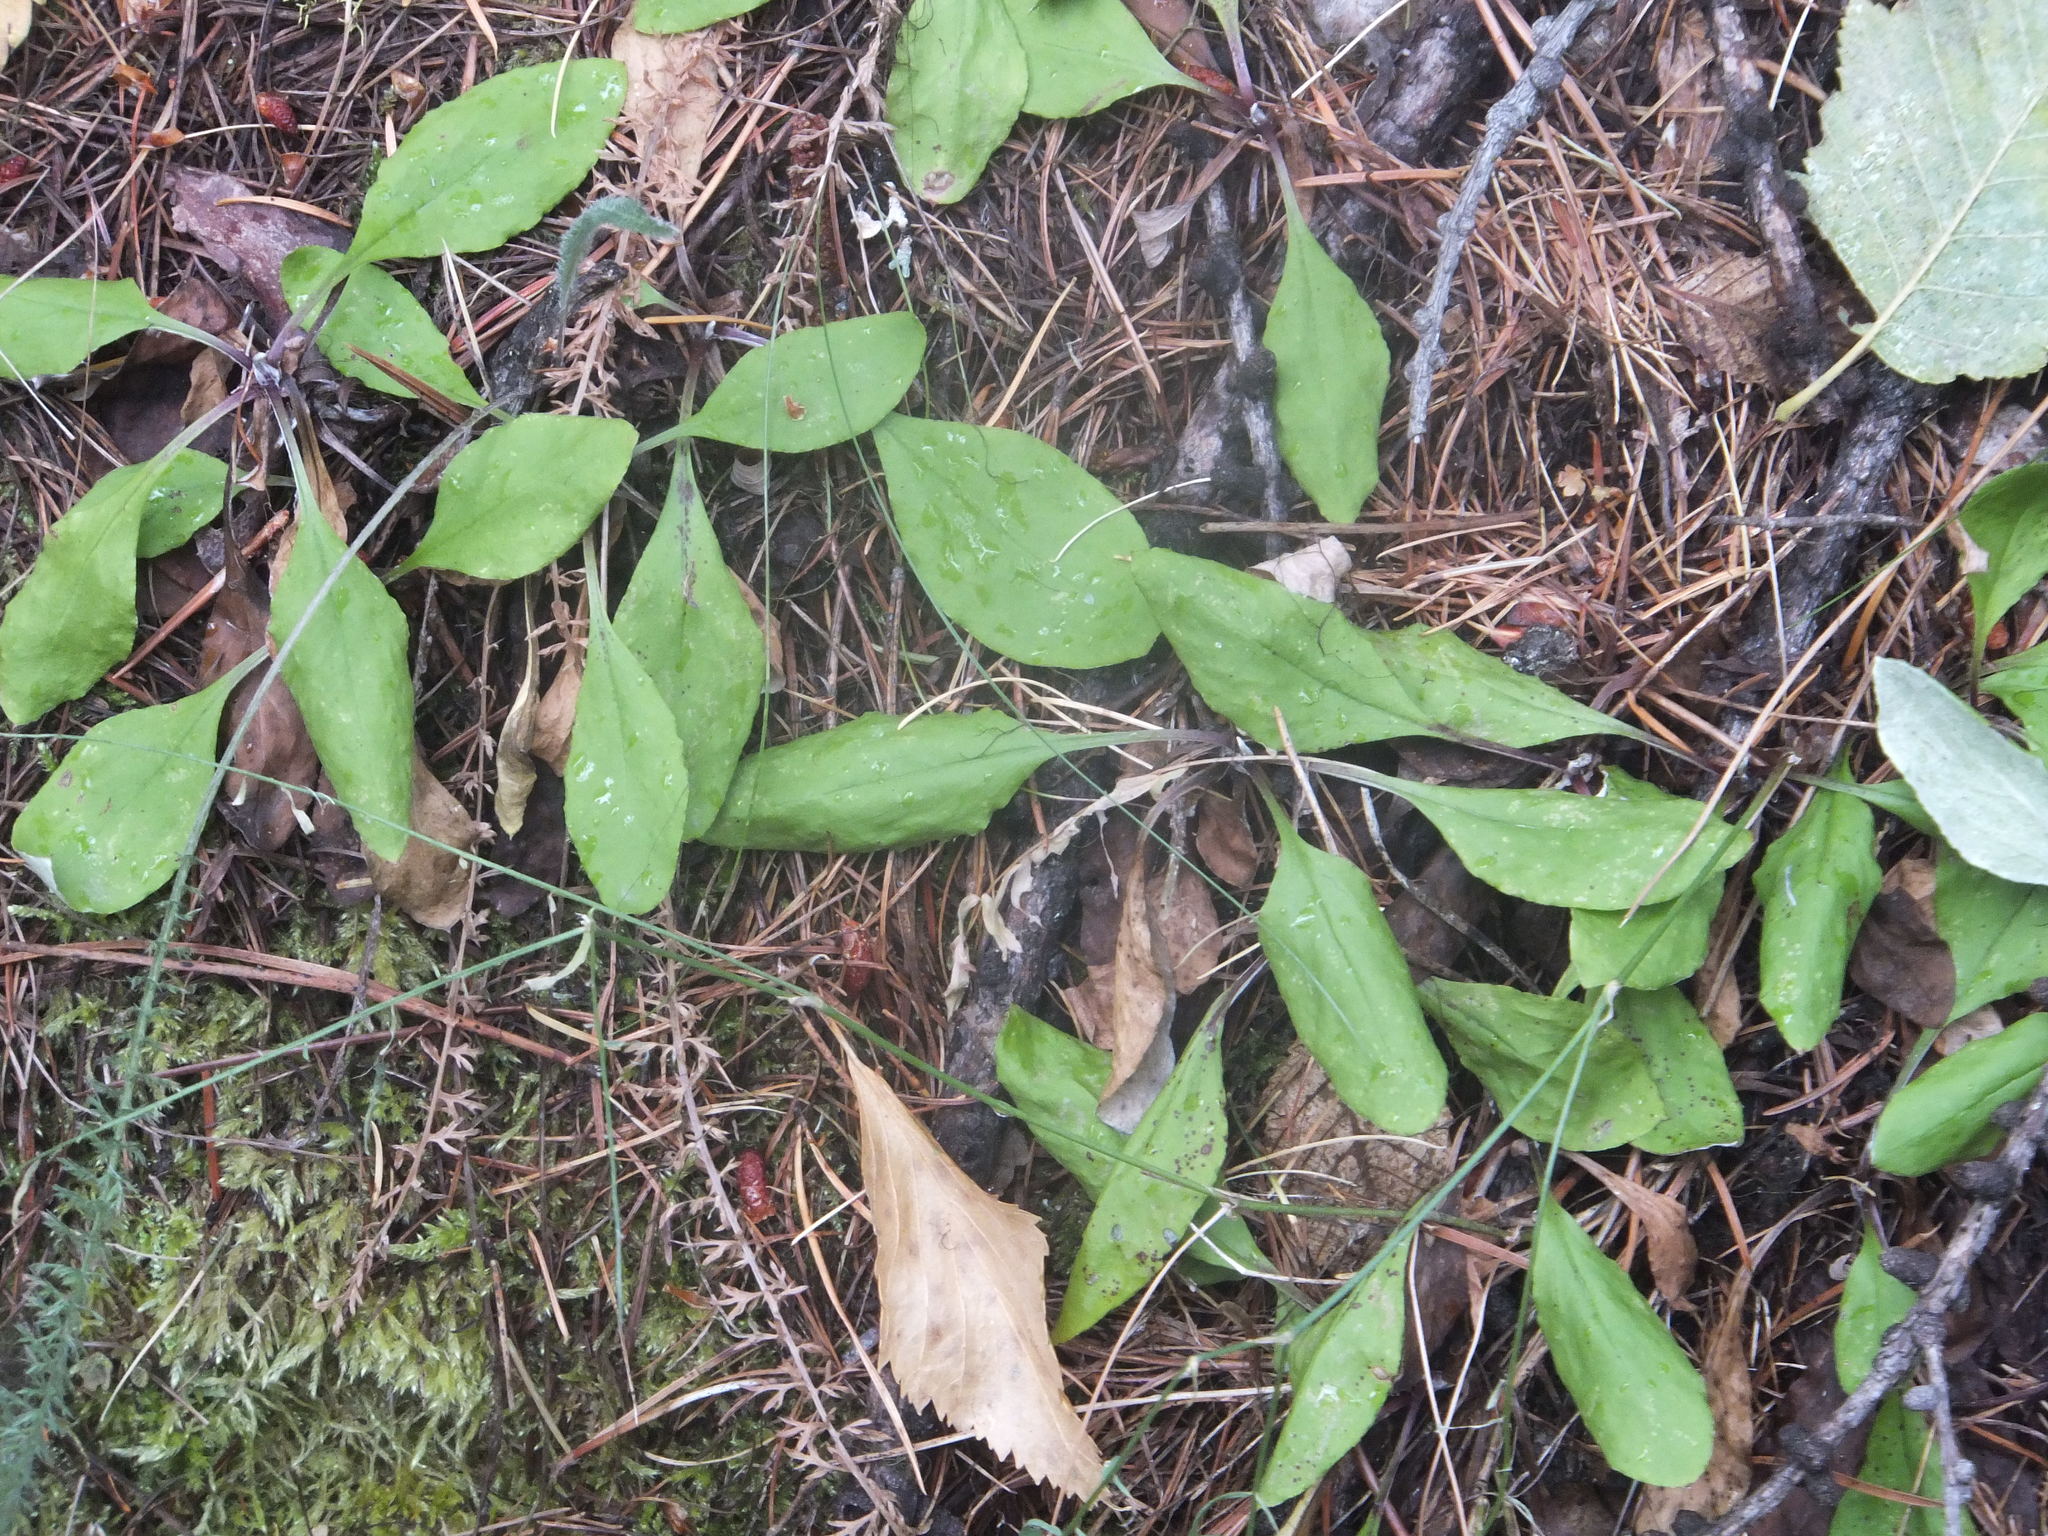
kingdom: Plantae
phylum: Tracheophyta
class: Magnoliopsida
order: Asterales
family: Asteraceae
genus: Antennaria
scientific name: Antennaria racemosa
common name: Racemose pussytoes
